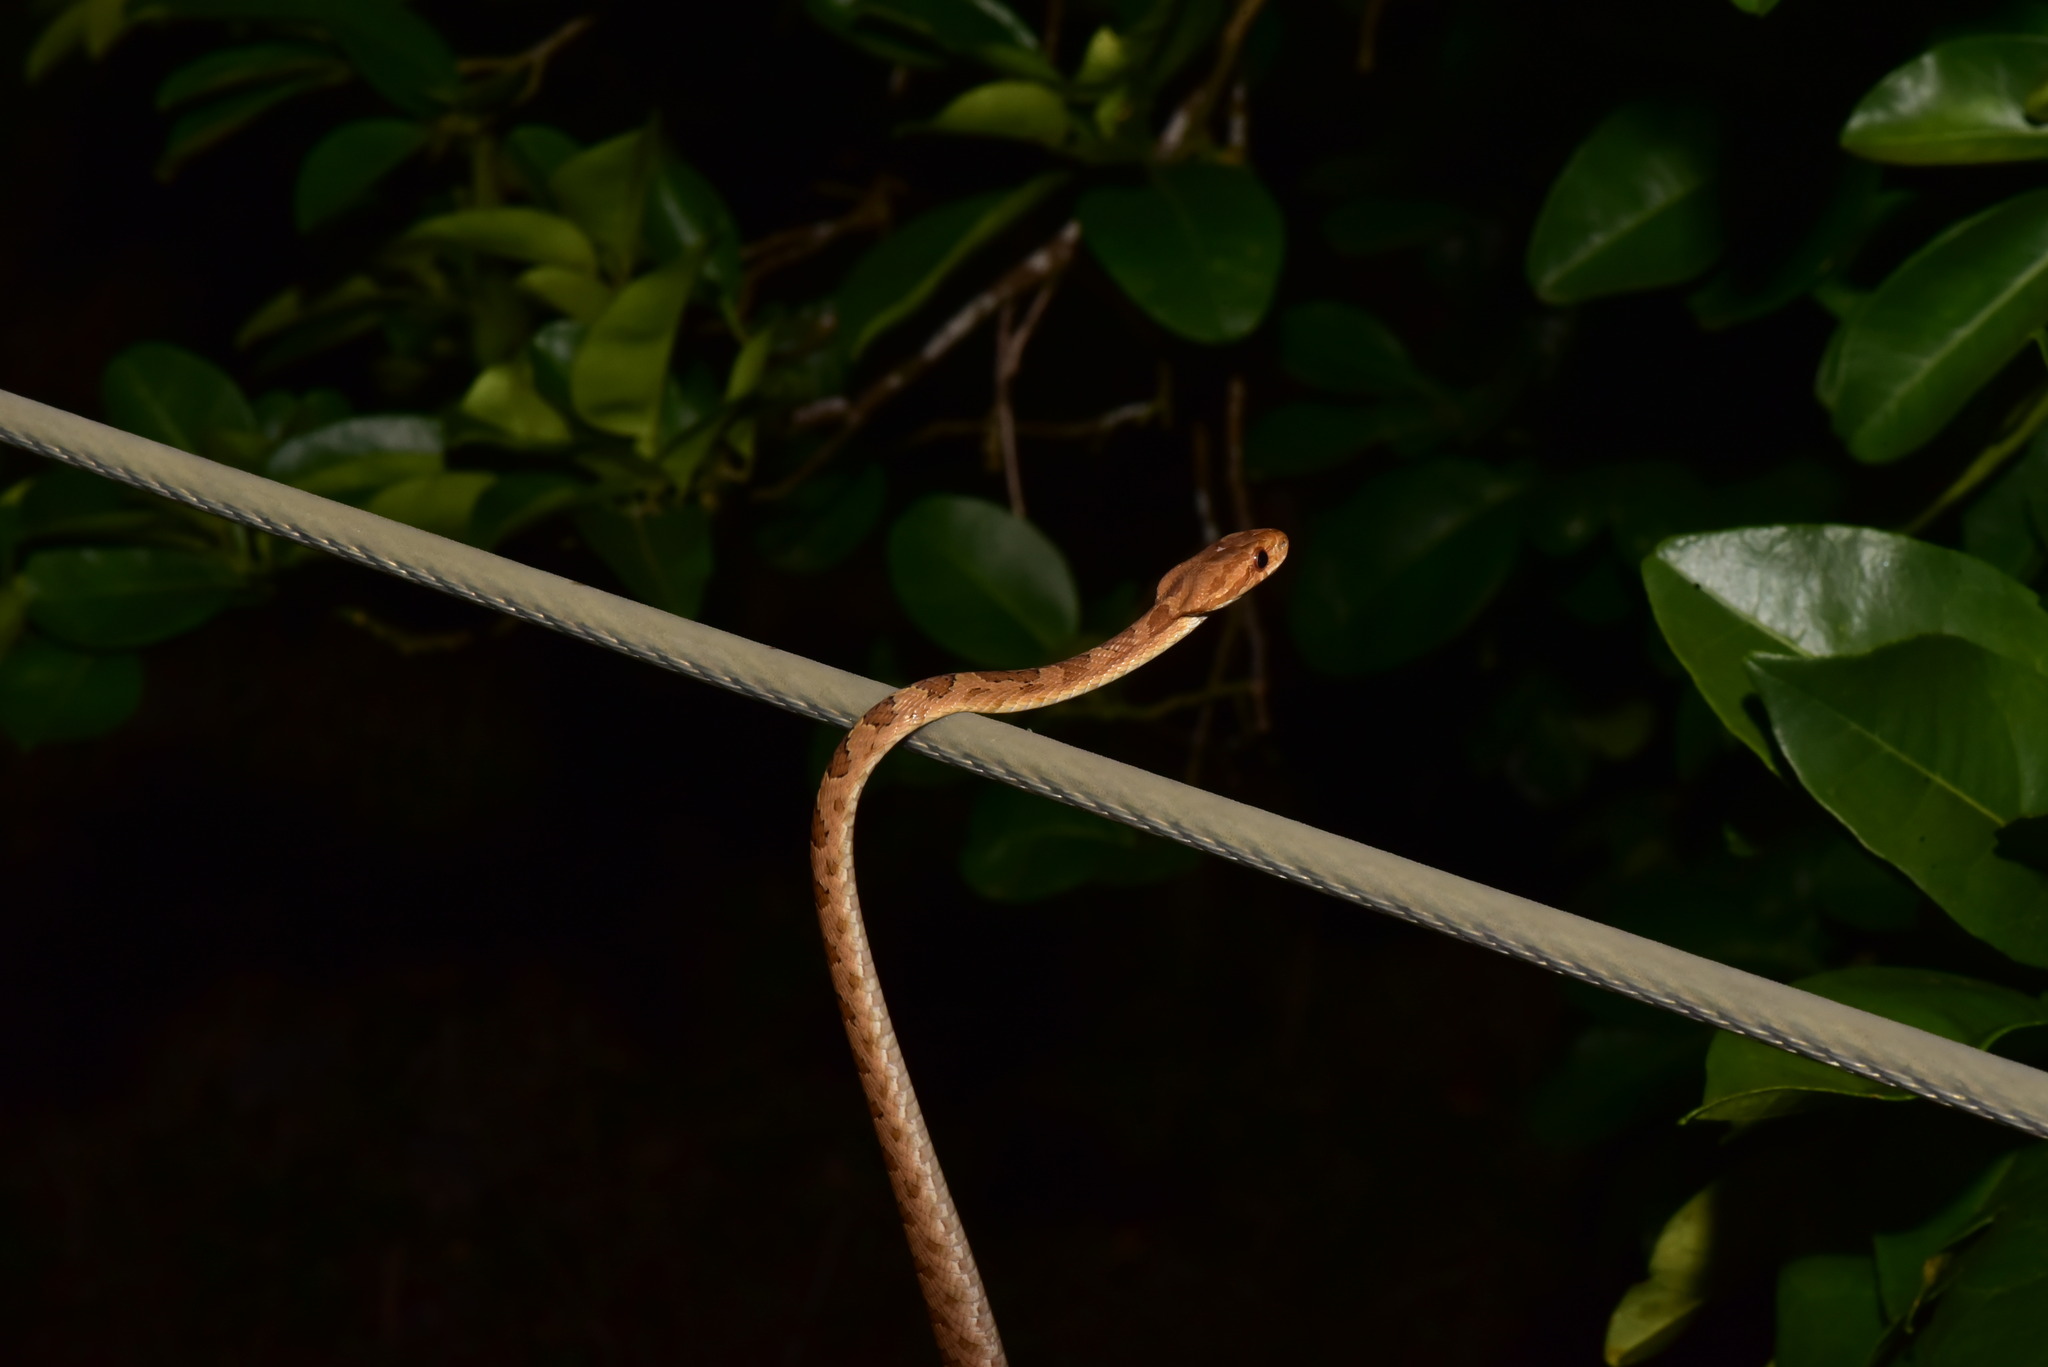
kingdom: Animalia
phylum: Chordata
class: Squamata
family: Colubridae
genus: Boiga
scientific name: Boiga kraepelini
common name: Kelung cat snake
